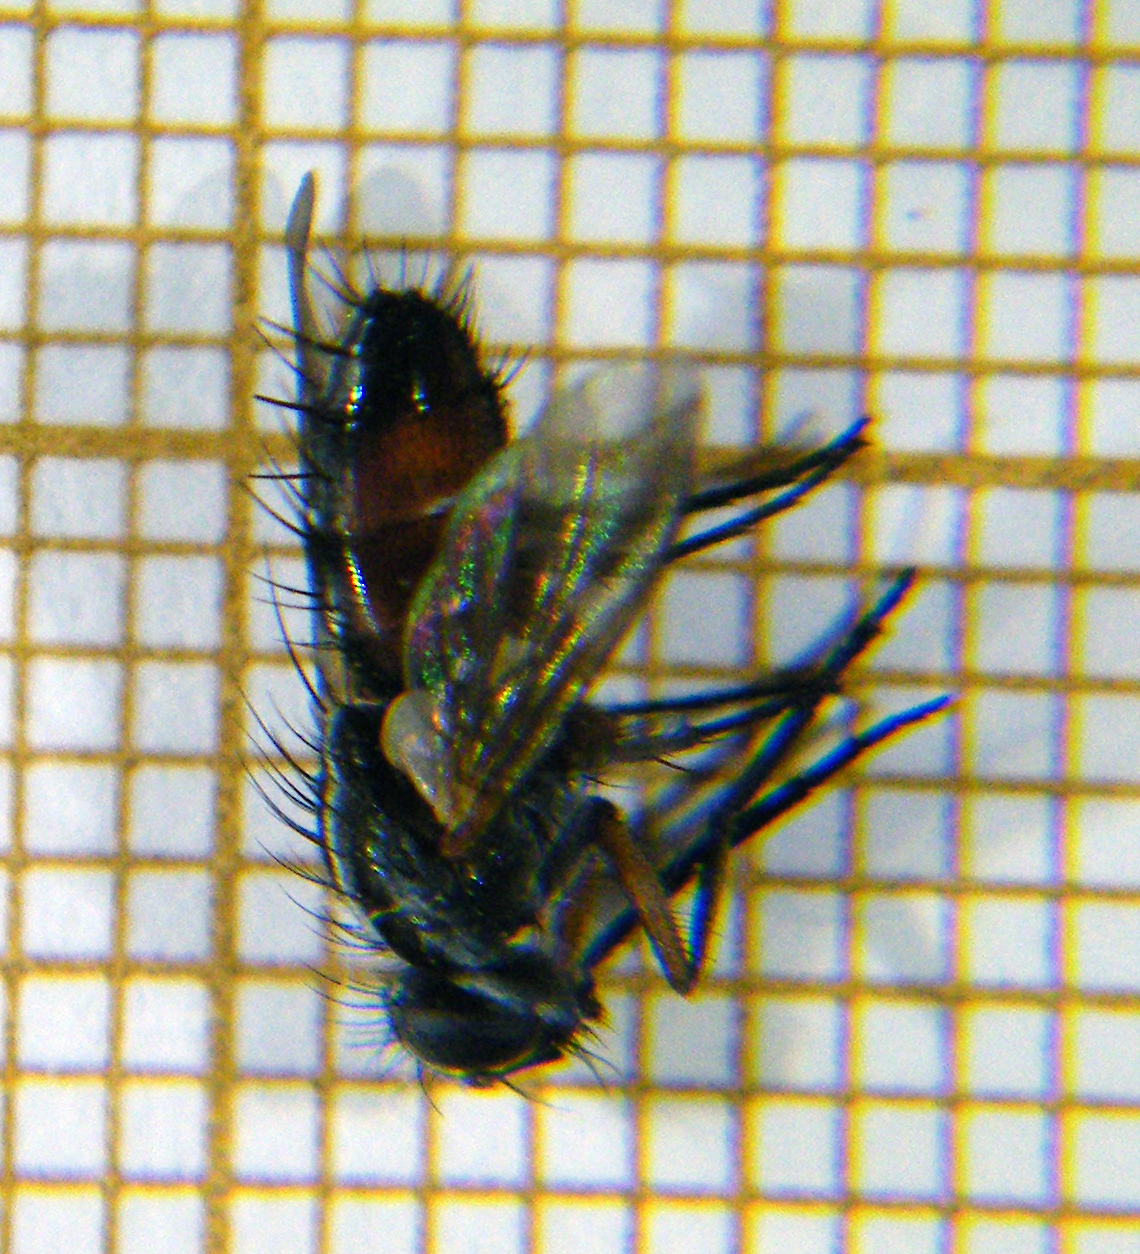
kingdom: Animalia
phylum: Arthropoda
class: Insecta
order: Diptera
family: Tachinidae
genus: Mintho
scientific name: Mintho rufiventris
